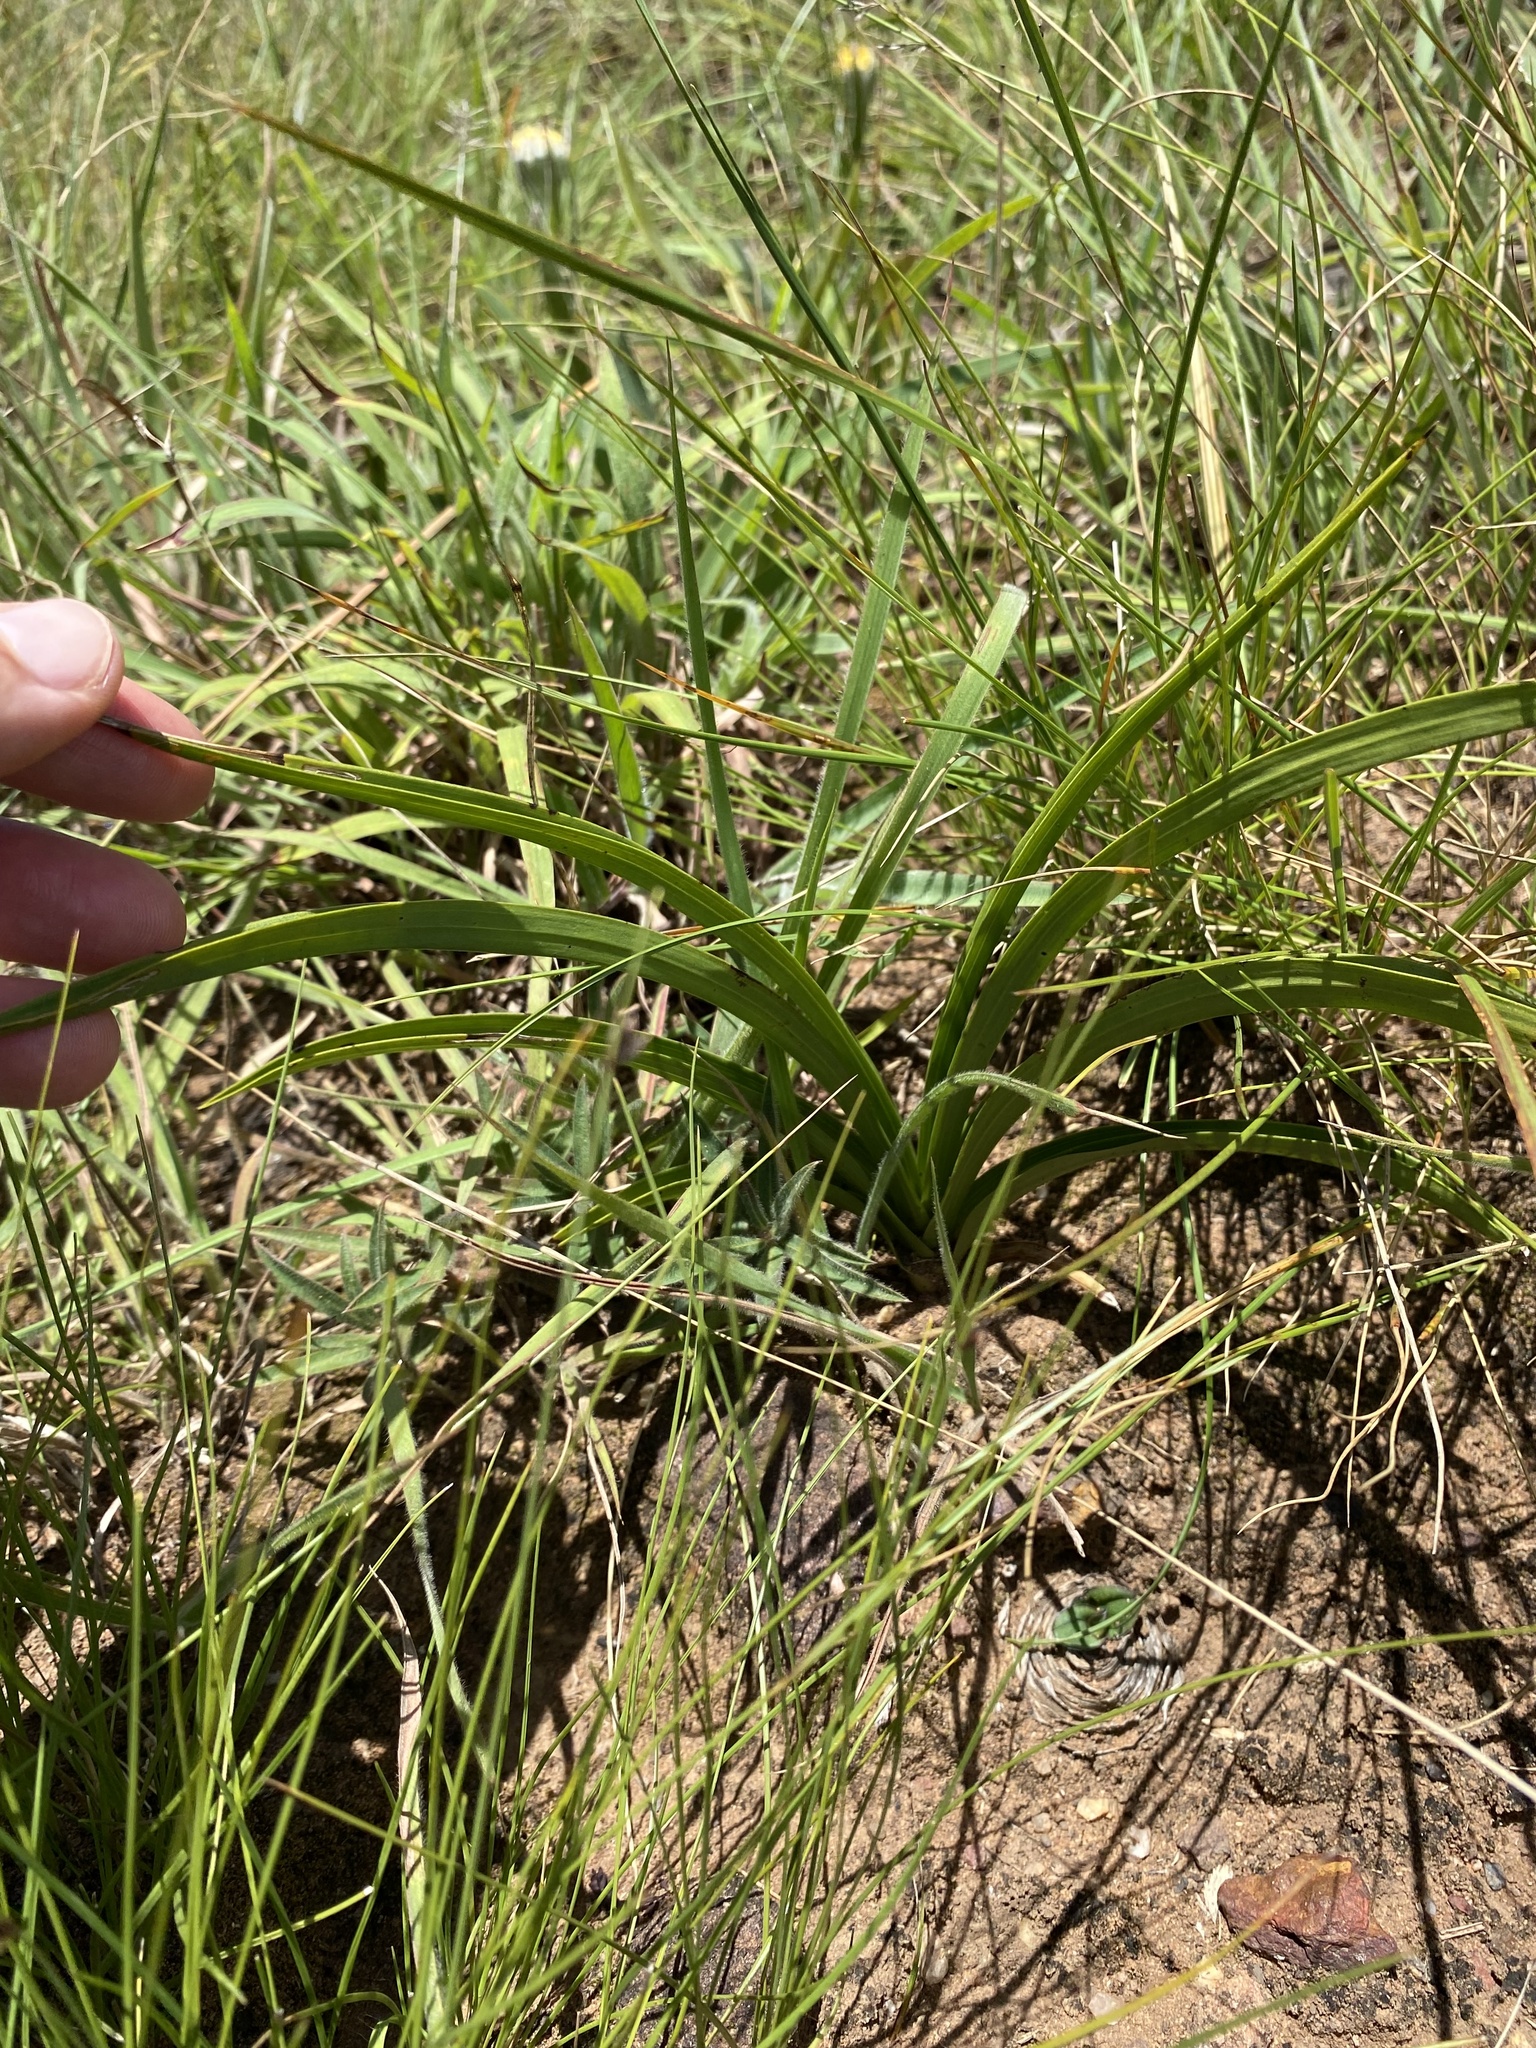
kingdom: Plantae
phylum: Tracheophyta
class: Liliopsida
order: Asparagales
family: Orchidaceae
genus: Eulophia
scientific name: Eulophia parviflora
